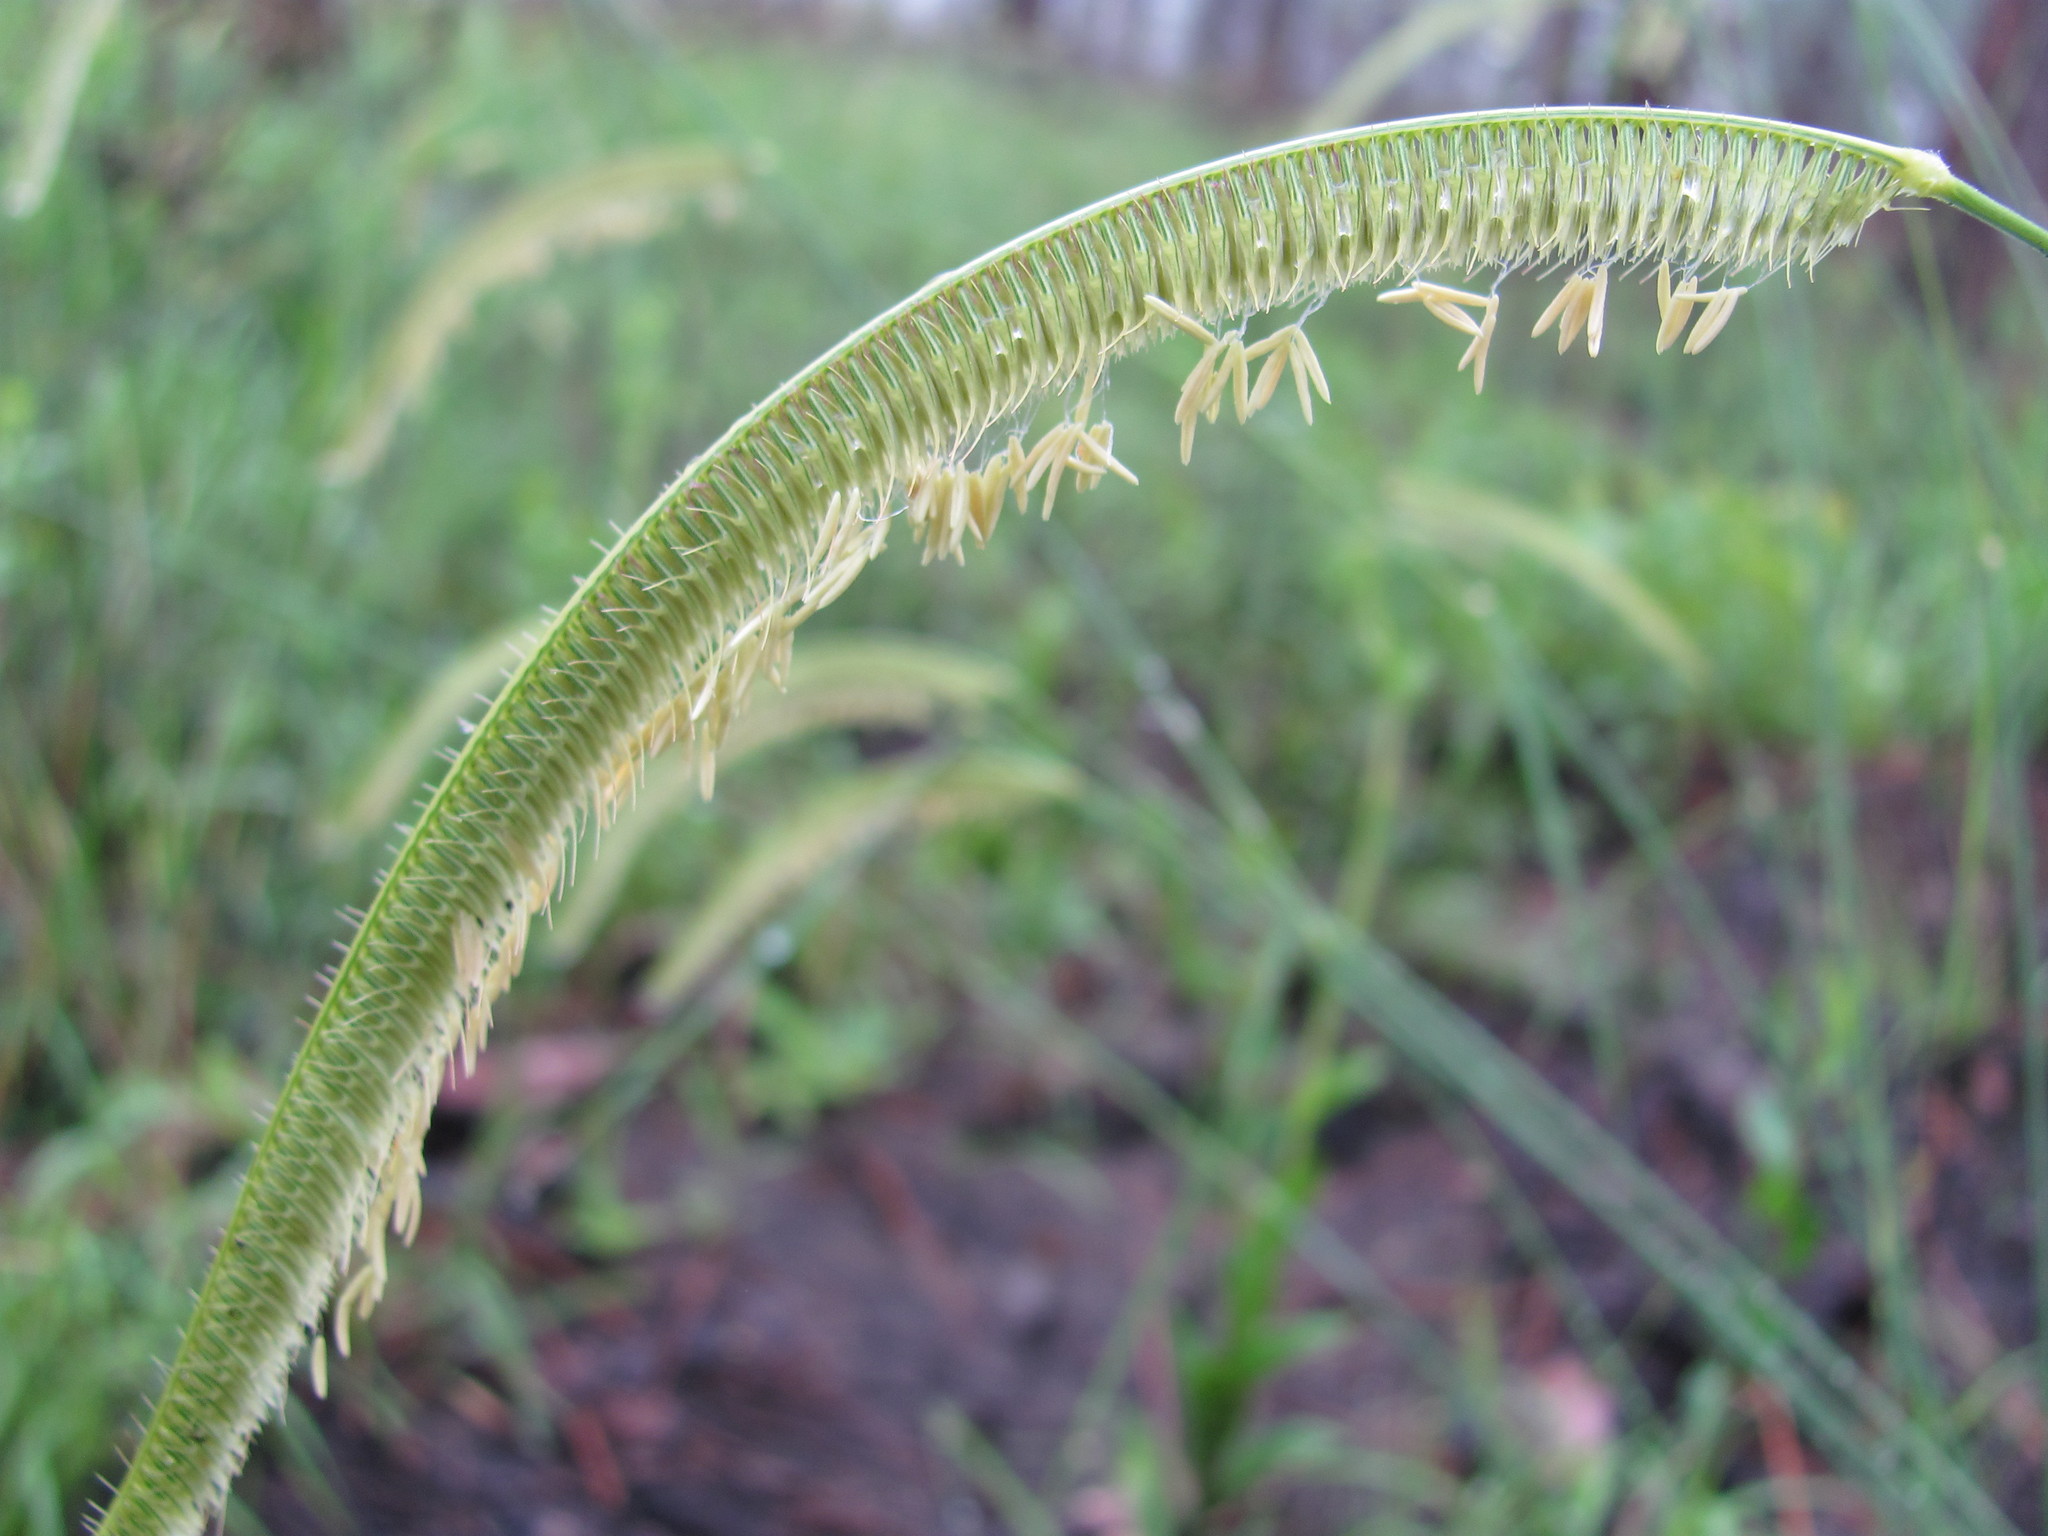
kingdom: Plantae
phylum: Tracheophyta
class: Liliopsida
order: Poales
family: Poaceae
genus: Ctenium
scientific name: Ctenium aromaticum
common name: Toothache grass
